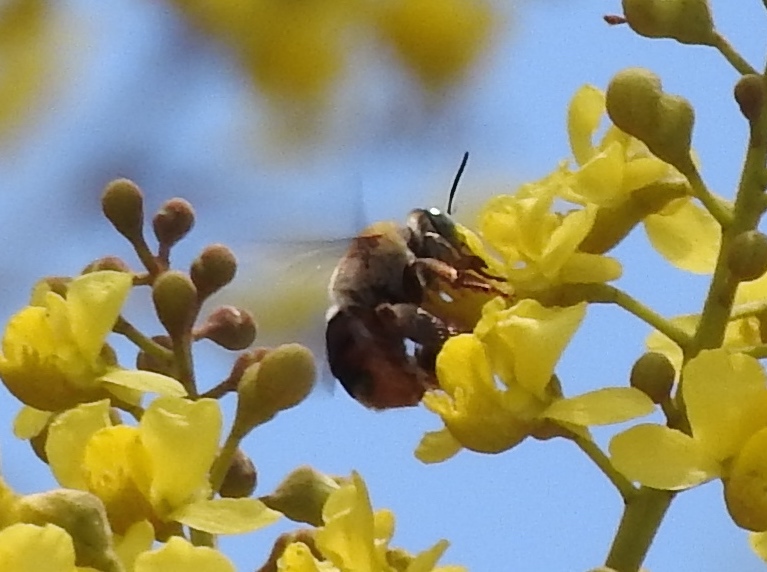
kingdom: Animalia
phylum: Arthropoda
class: Insecta
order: Hymenoptera
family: Apidae
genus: Centris
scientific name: Centris eurypatana
